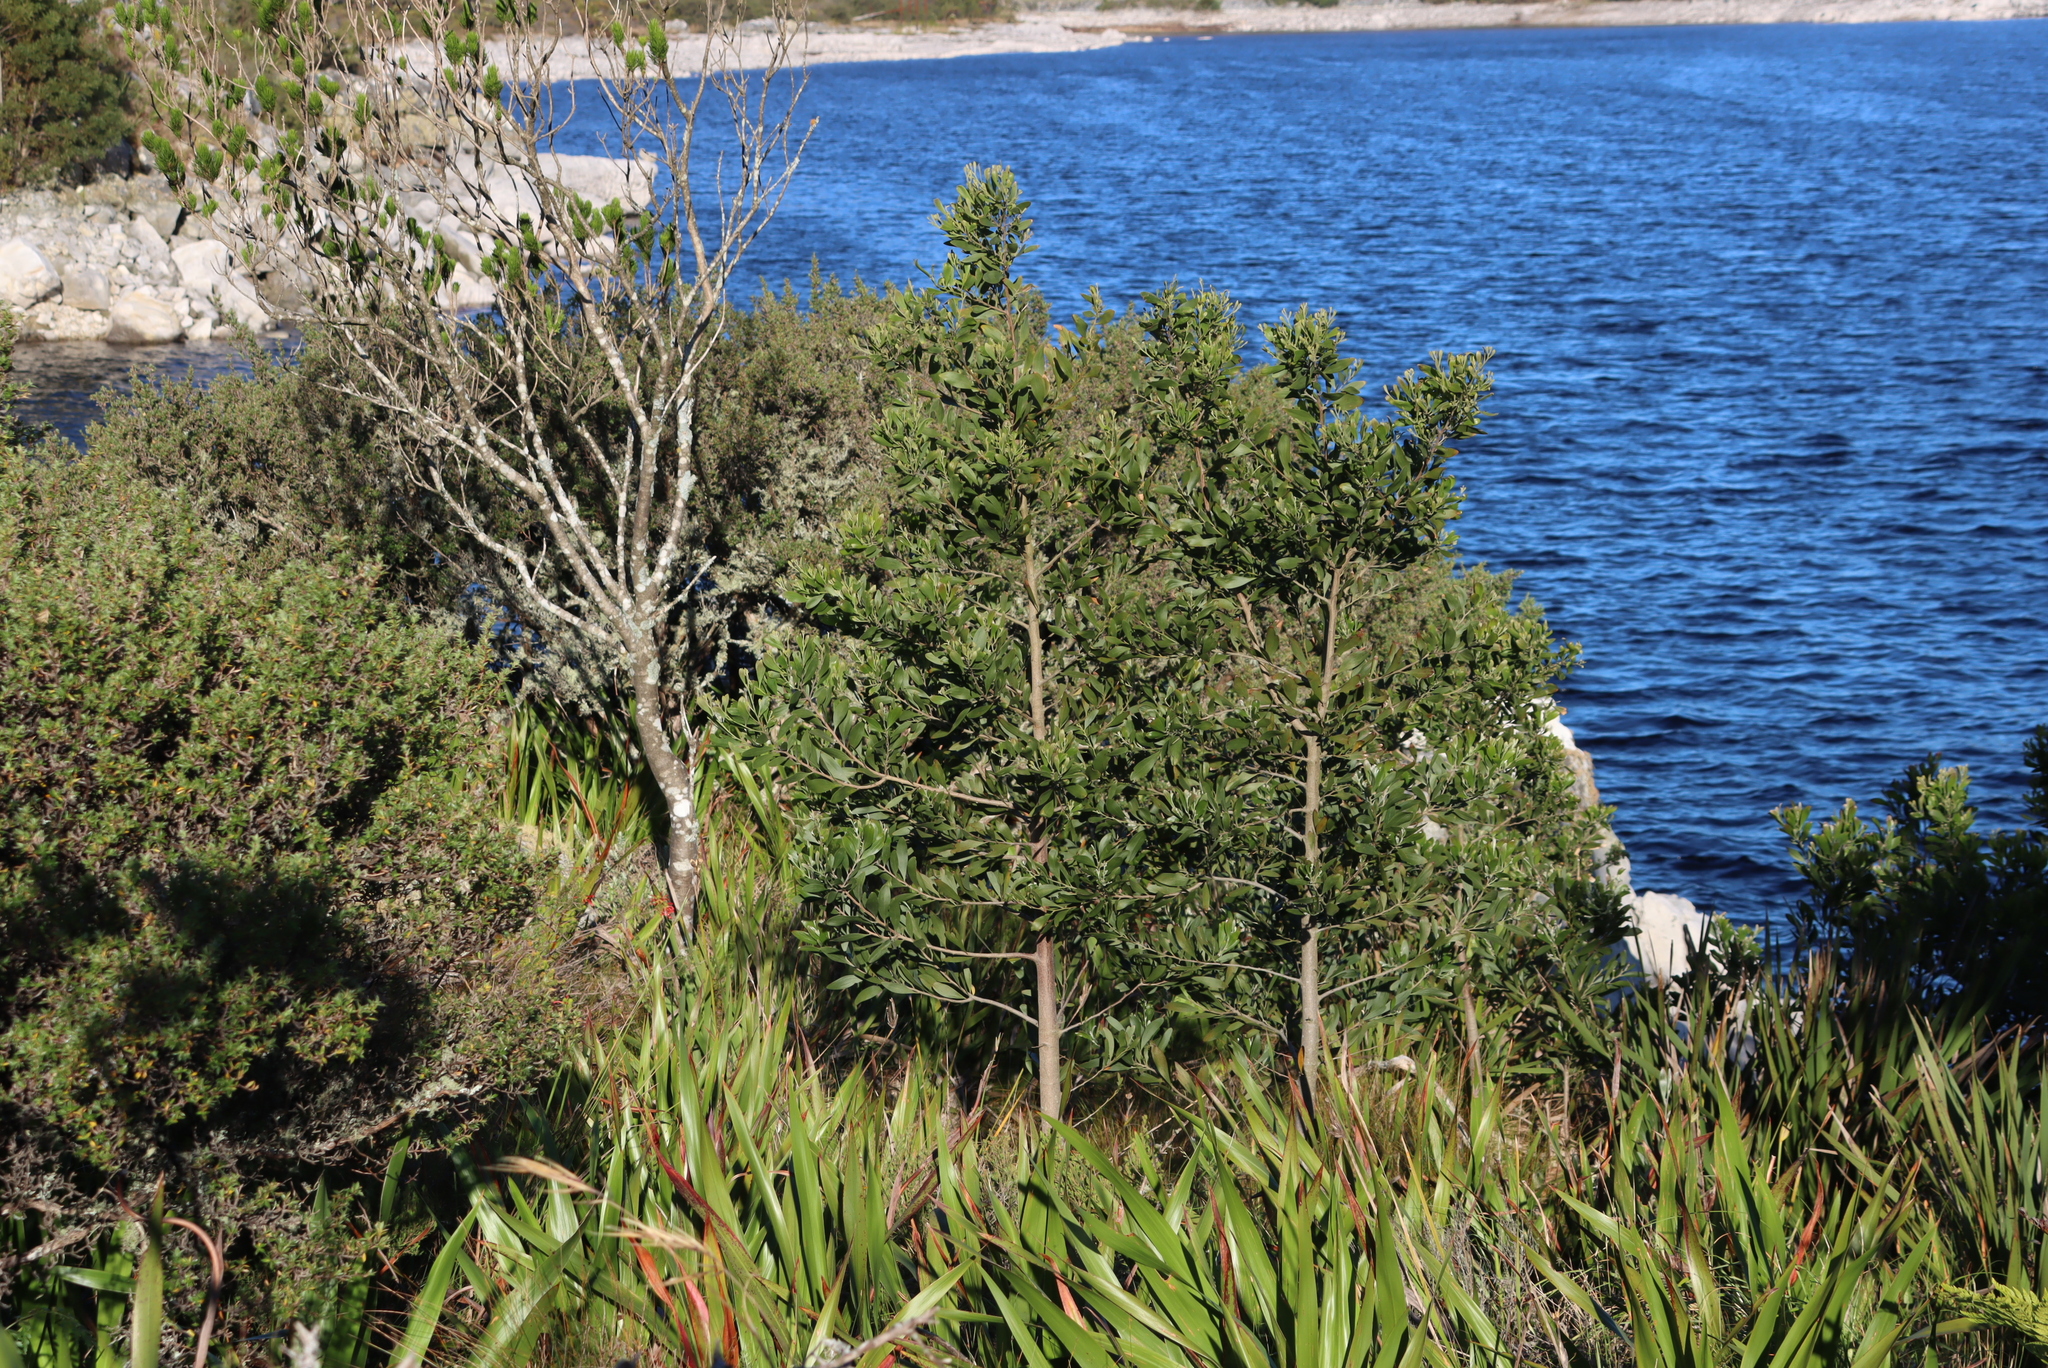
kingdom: Plantae
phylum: Tracheophyta
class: Magnoliopsida
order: Fabales
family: Fabaceae
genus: Acacia
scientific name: Acacia melanoxylon
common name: Blackwood
